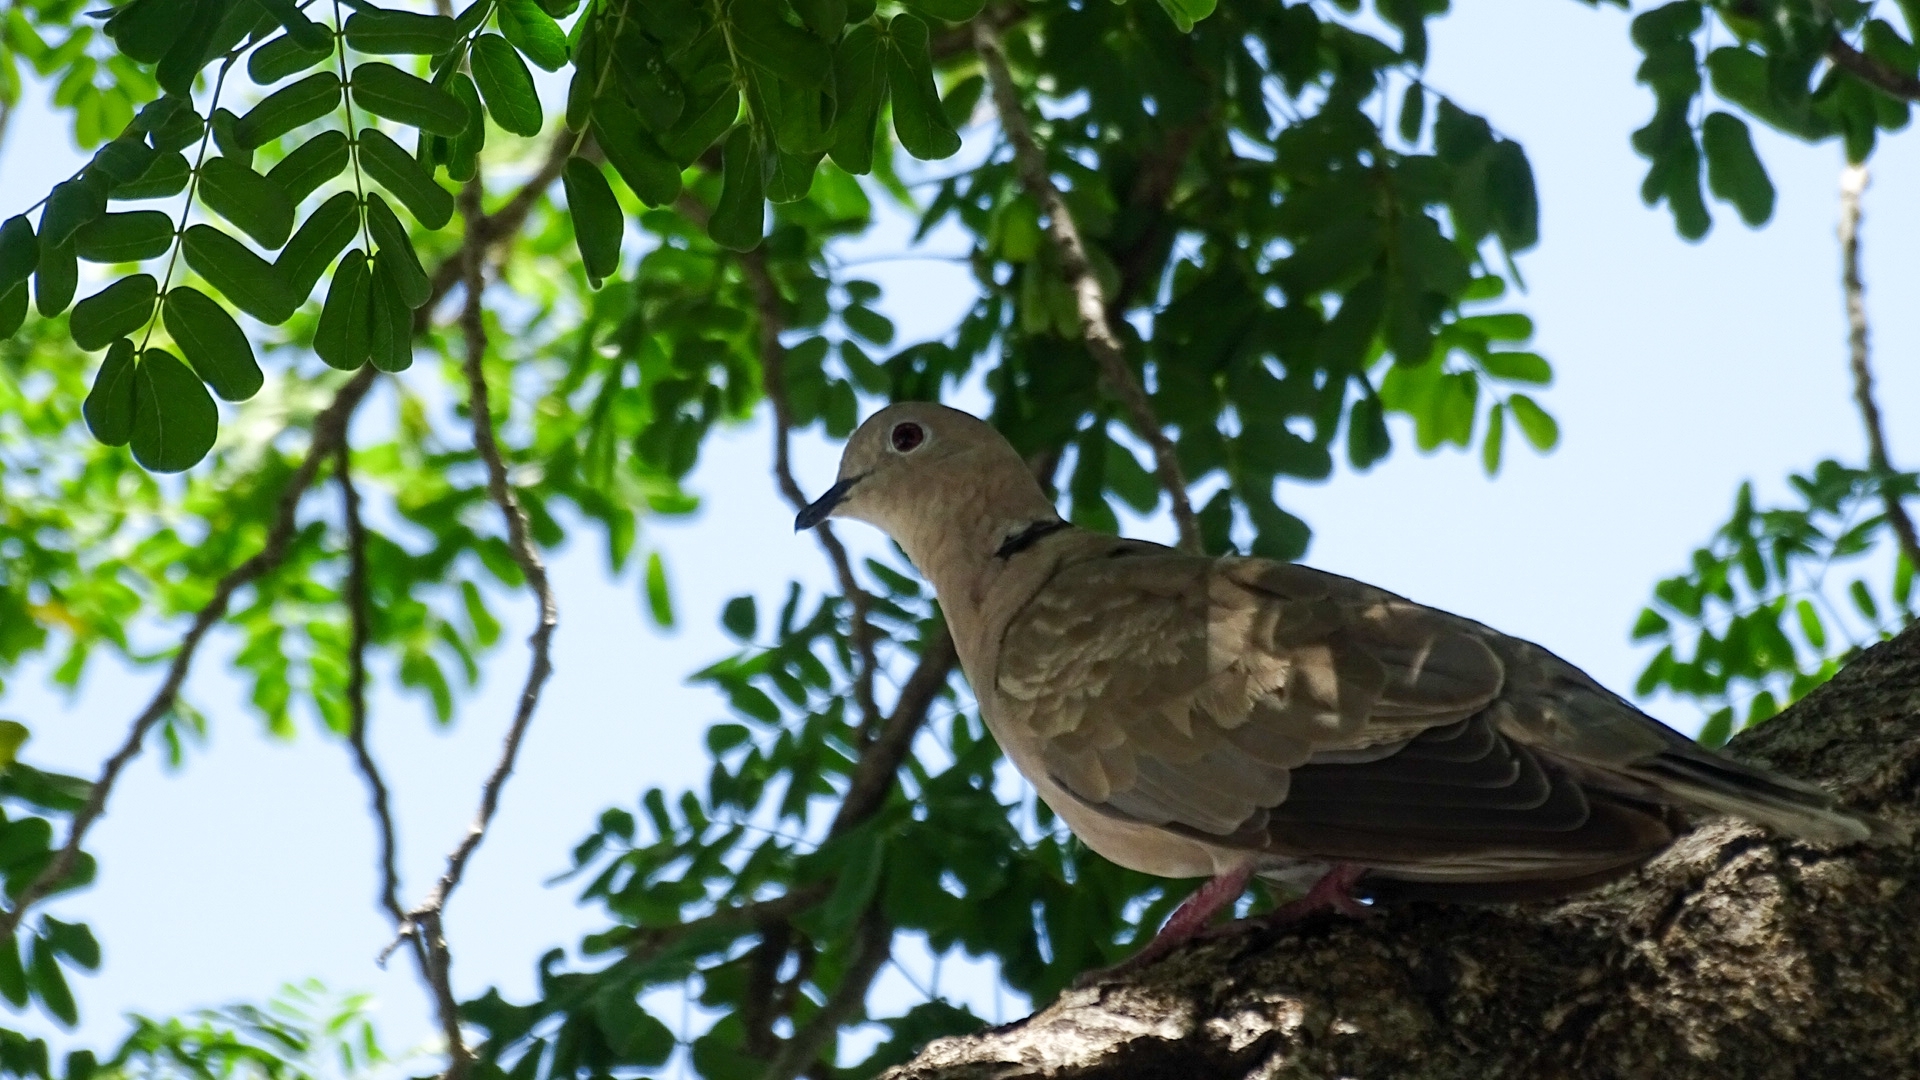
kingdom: Animalia
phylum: Chordata
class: Aves
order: Columbiformes
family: Columbidae
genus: Streptopelia
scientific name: Streptopelia decaocto
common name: Eurasian collared dove
